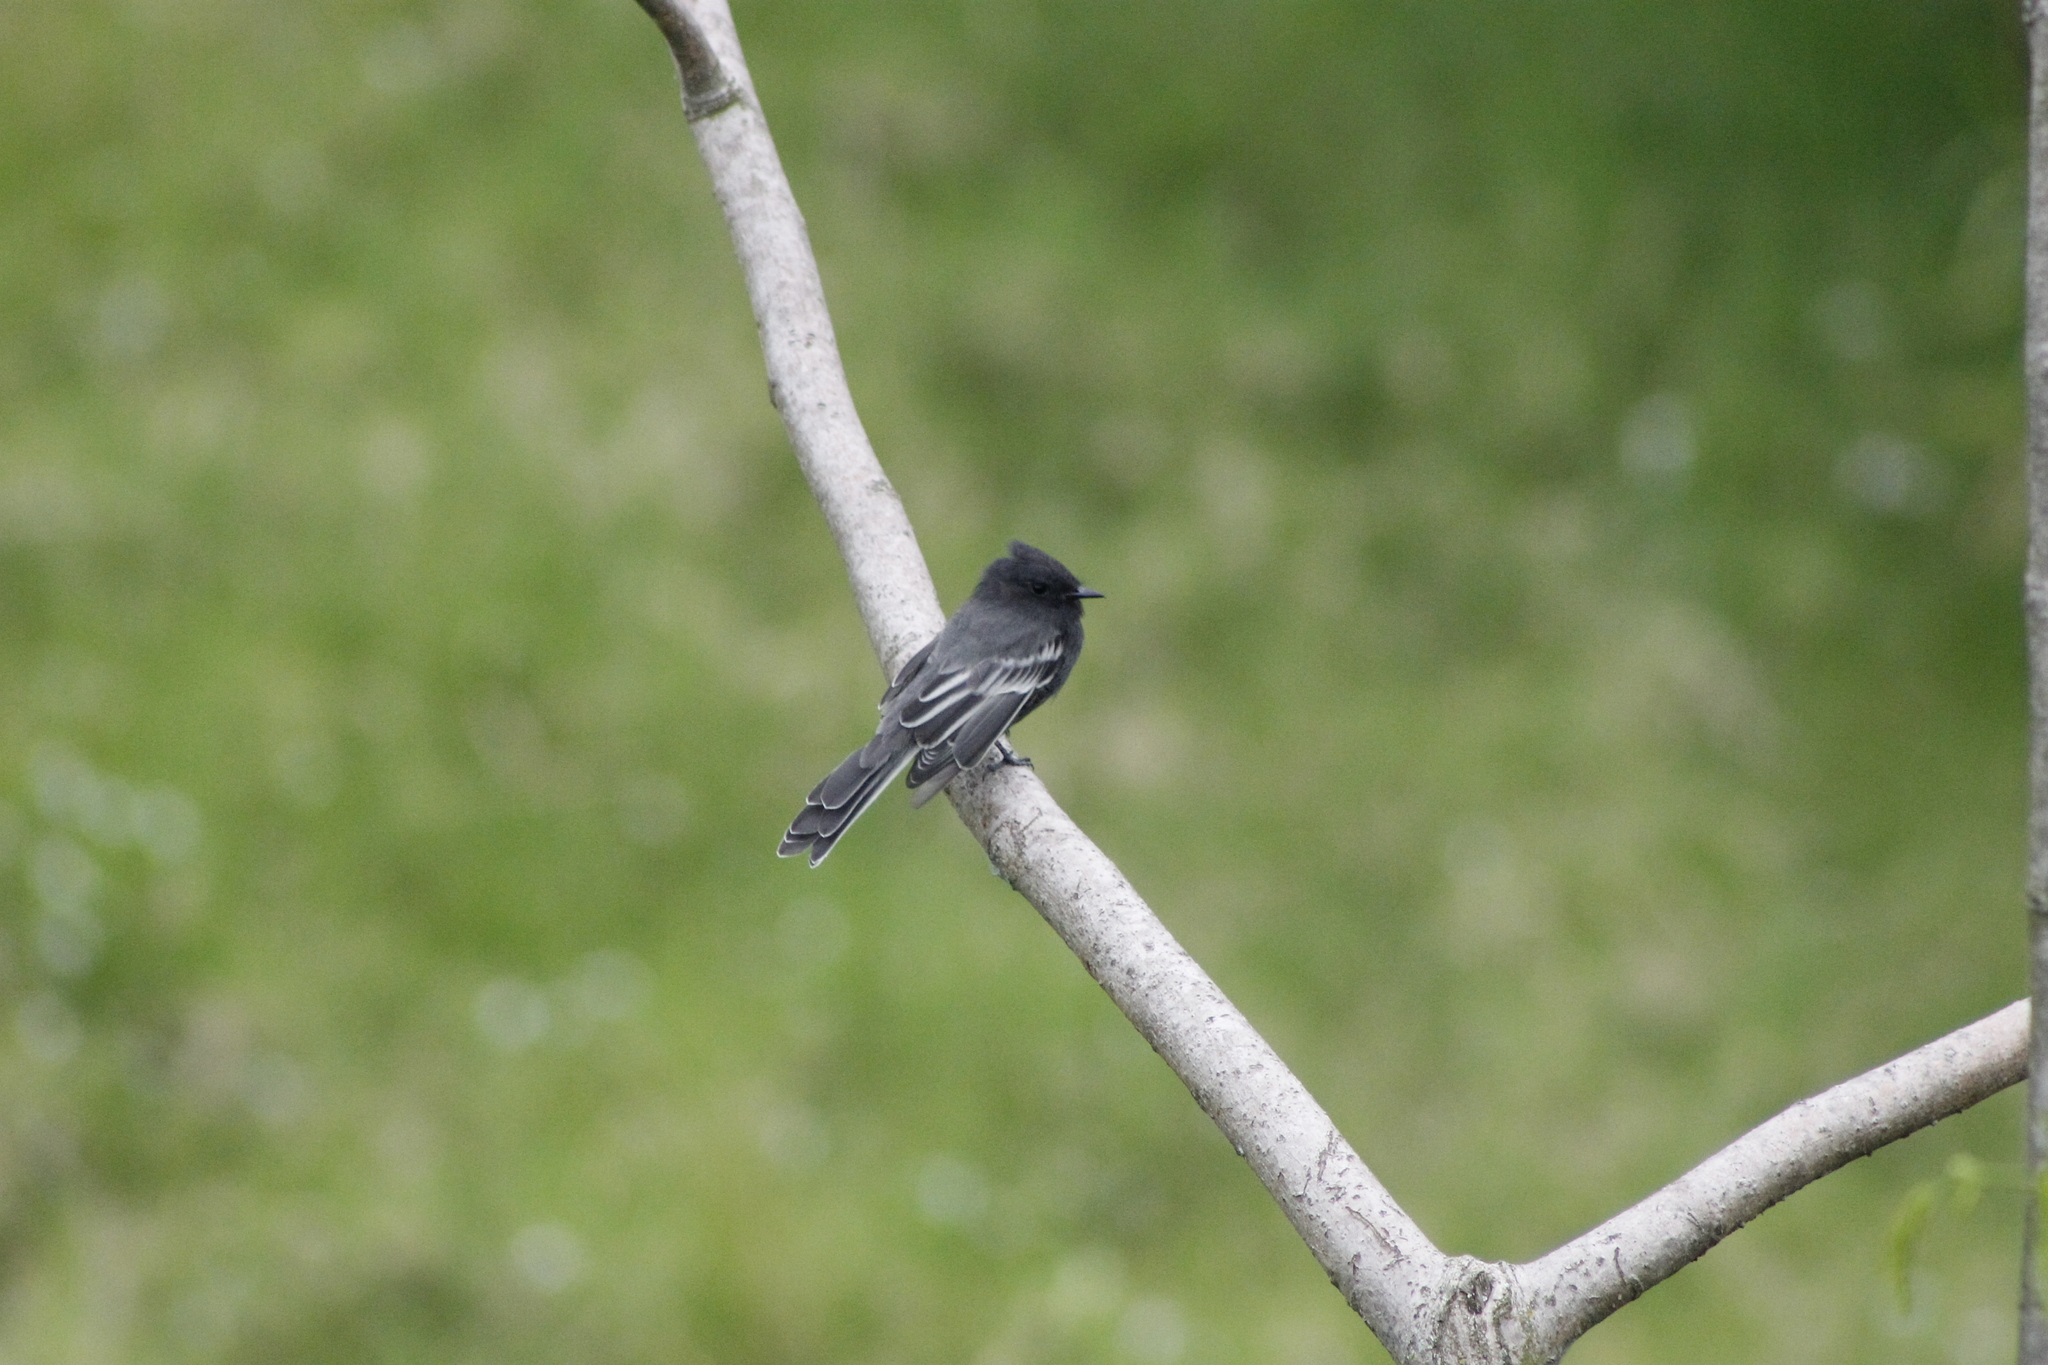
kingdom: Animalia
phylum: Chordata
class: Aves
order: Passeriformes
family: Tyrannidae
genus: Sayornis
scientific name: Sayornis nigricans
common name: Black phoebe
